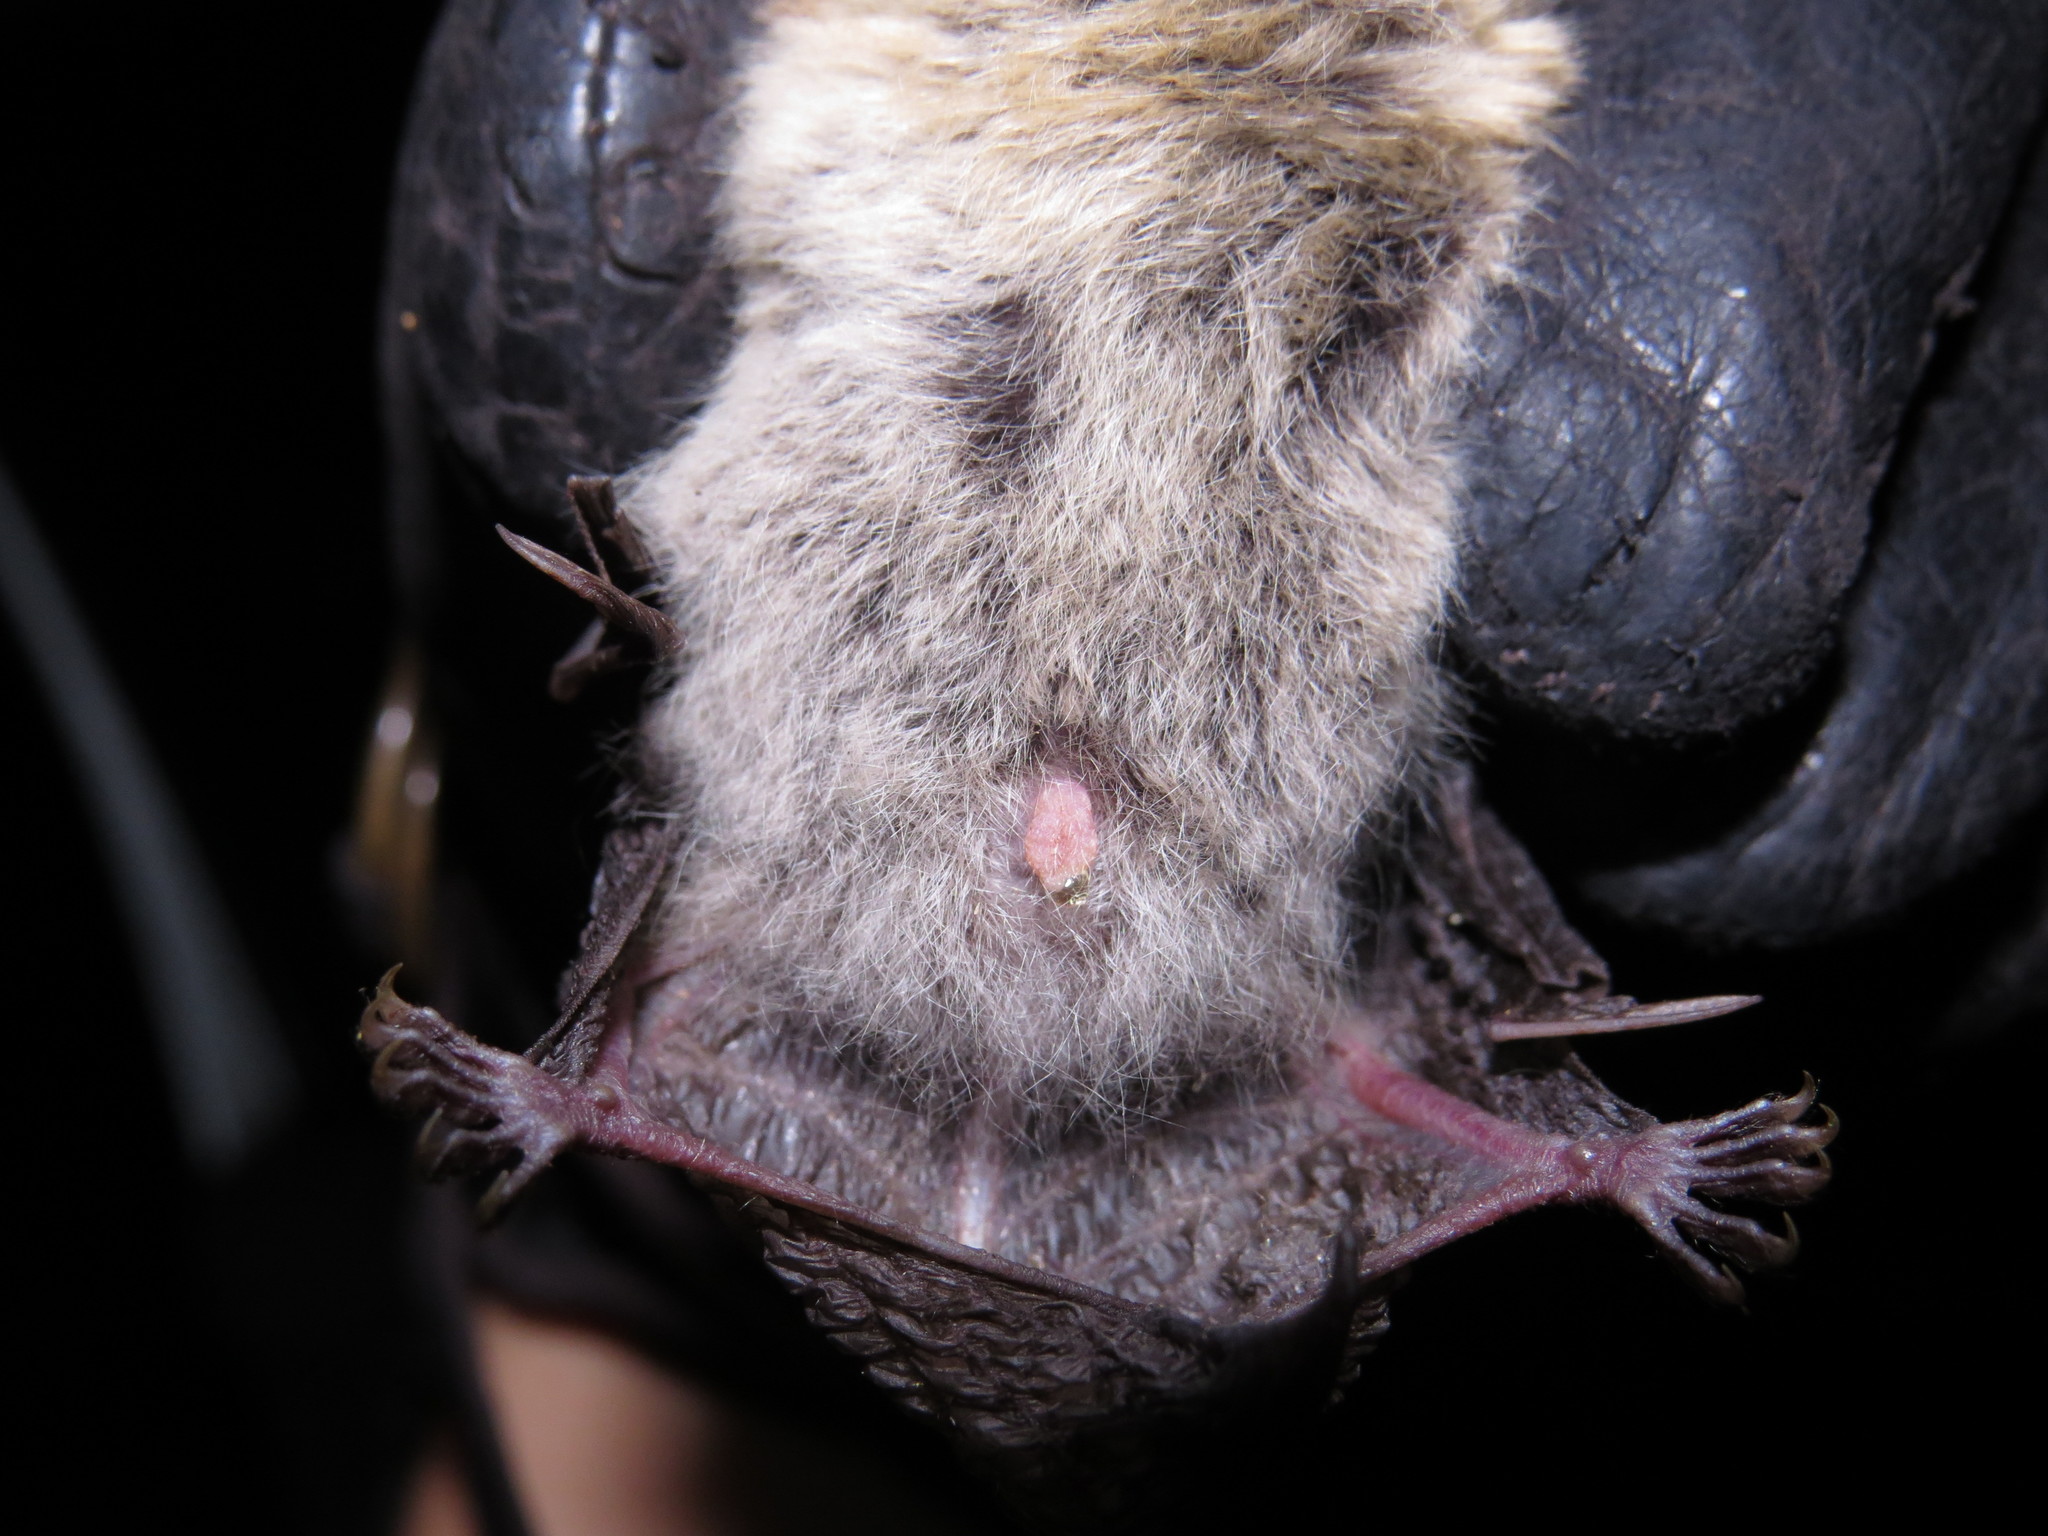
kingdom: Animalia
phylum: Chordata
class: Mammalia
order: Chiroptera
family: Vespertilionidae
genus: Plecotus
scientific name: Plecotus austriacus
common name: Grey long-eared bat
